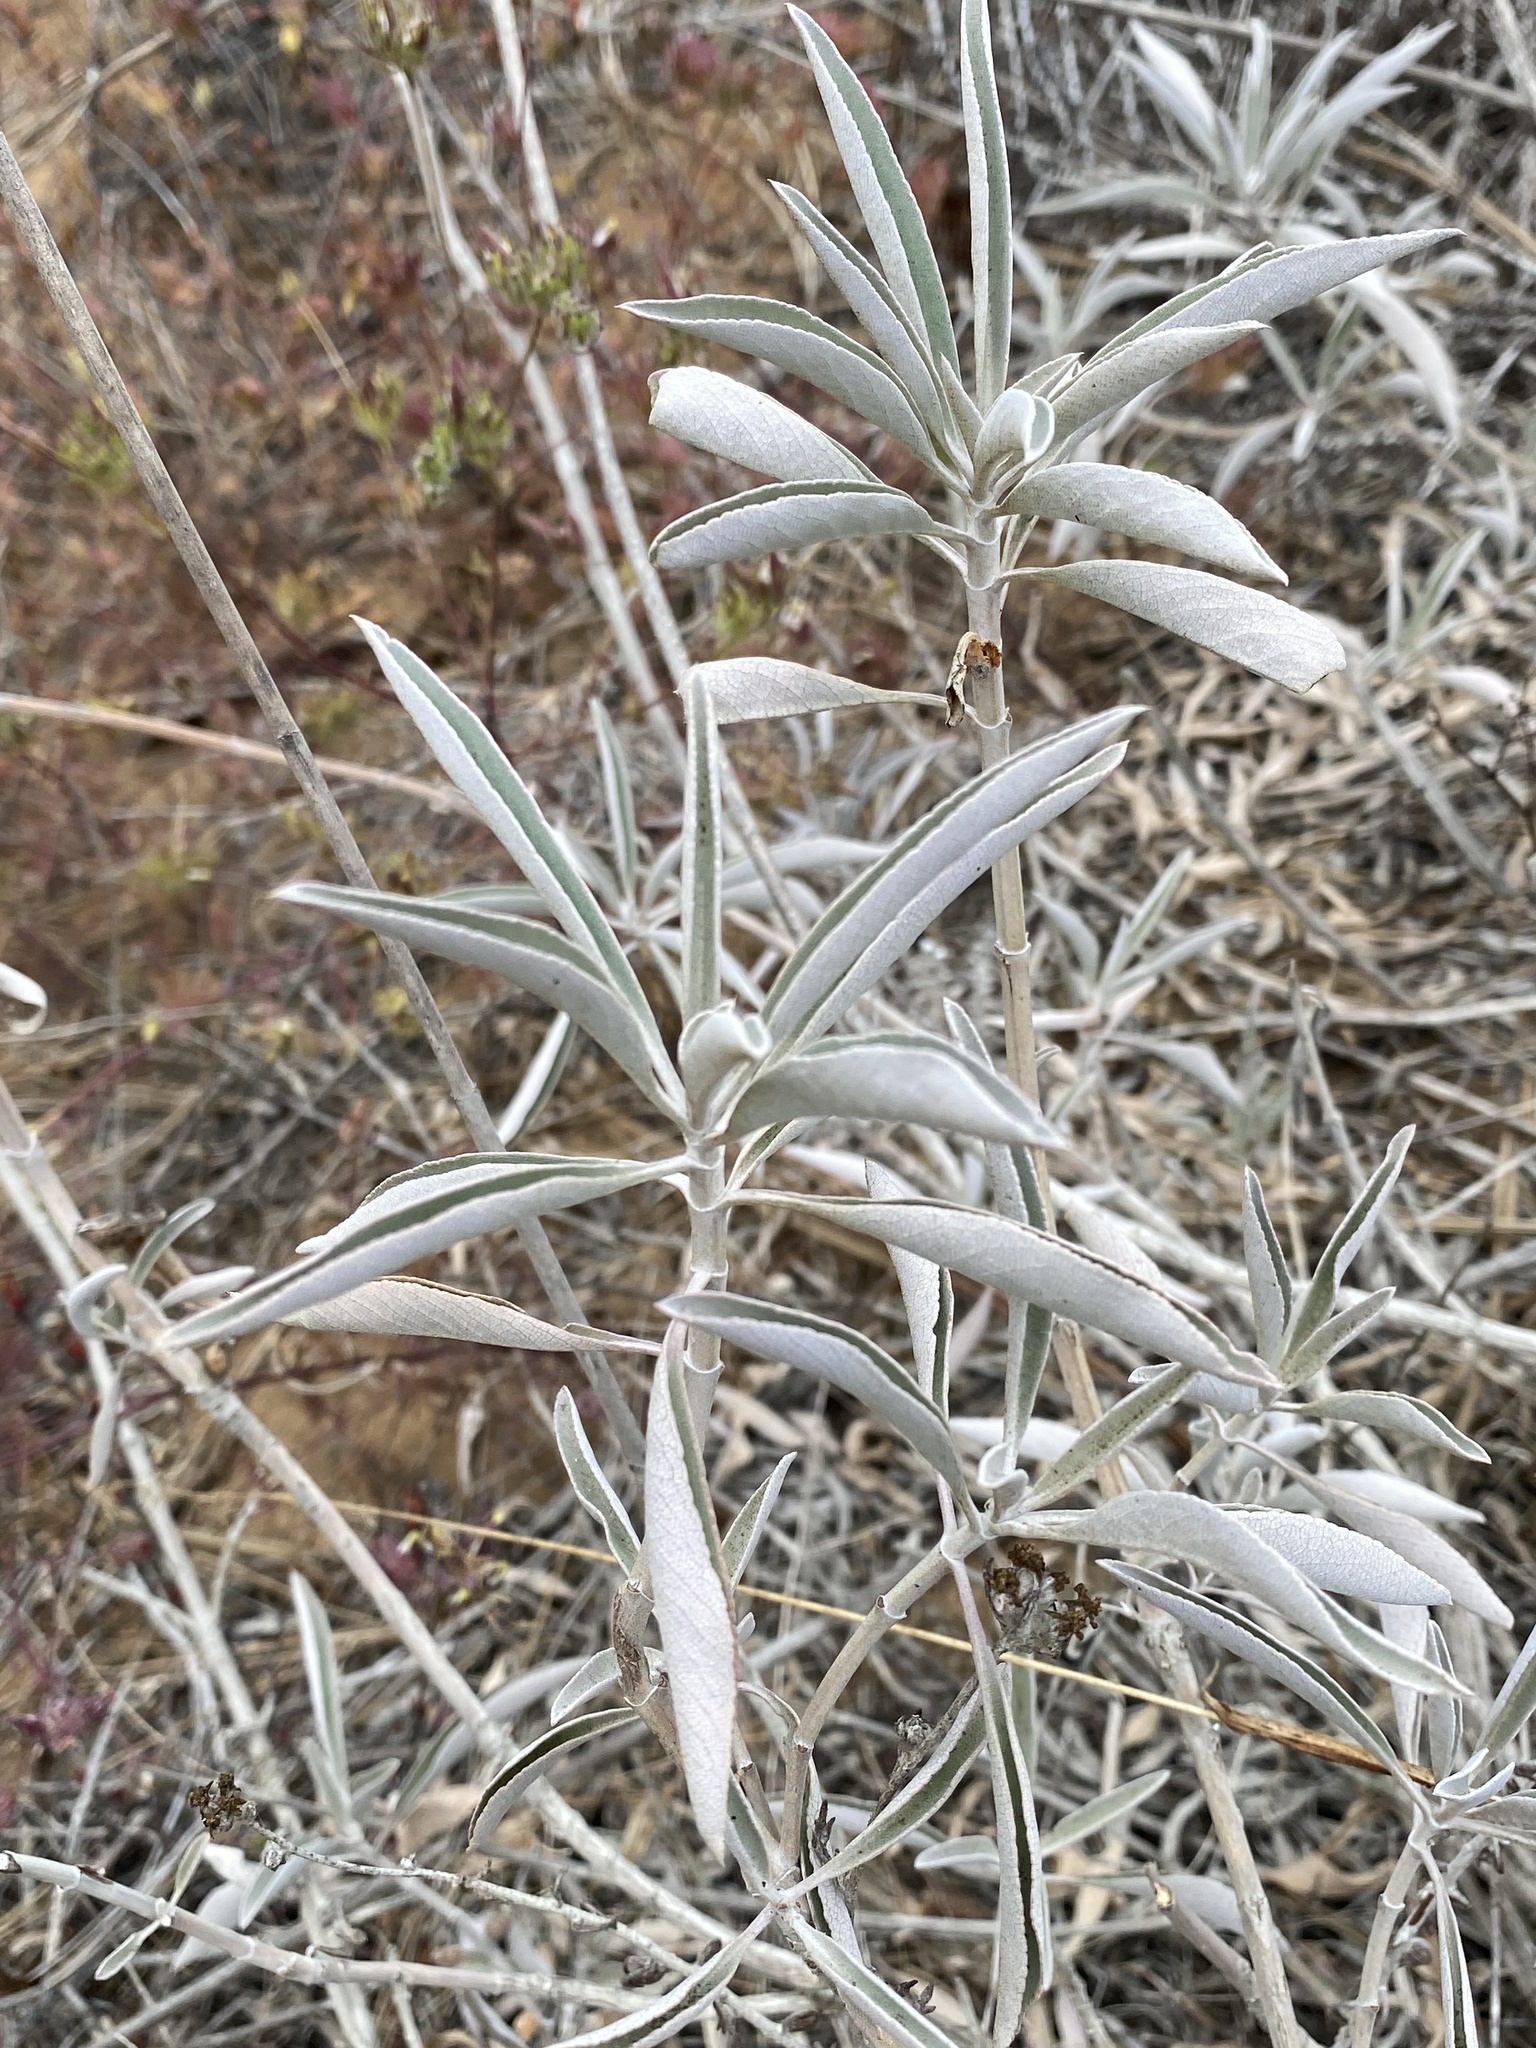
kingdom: Plantae
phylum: Tracheophyta
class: Magnoliopsida
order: Lamiales
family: Lamiaceae
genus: Salvia
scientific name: Salvia apiana
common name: White sage
